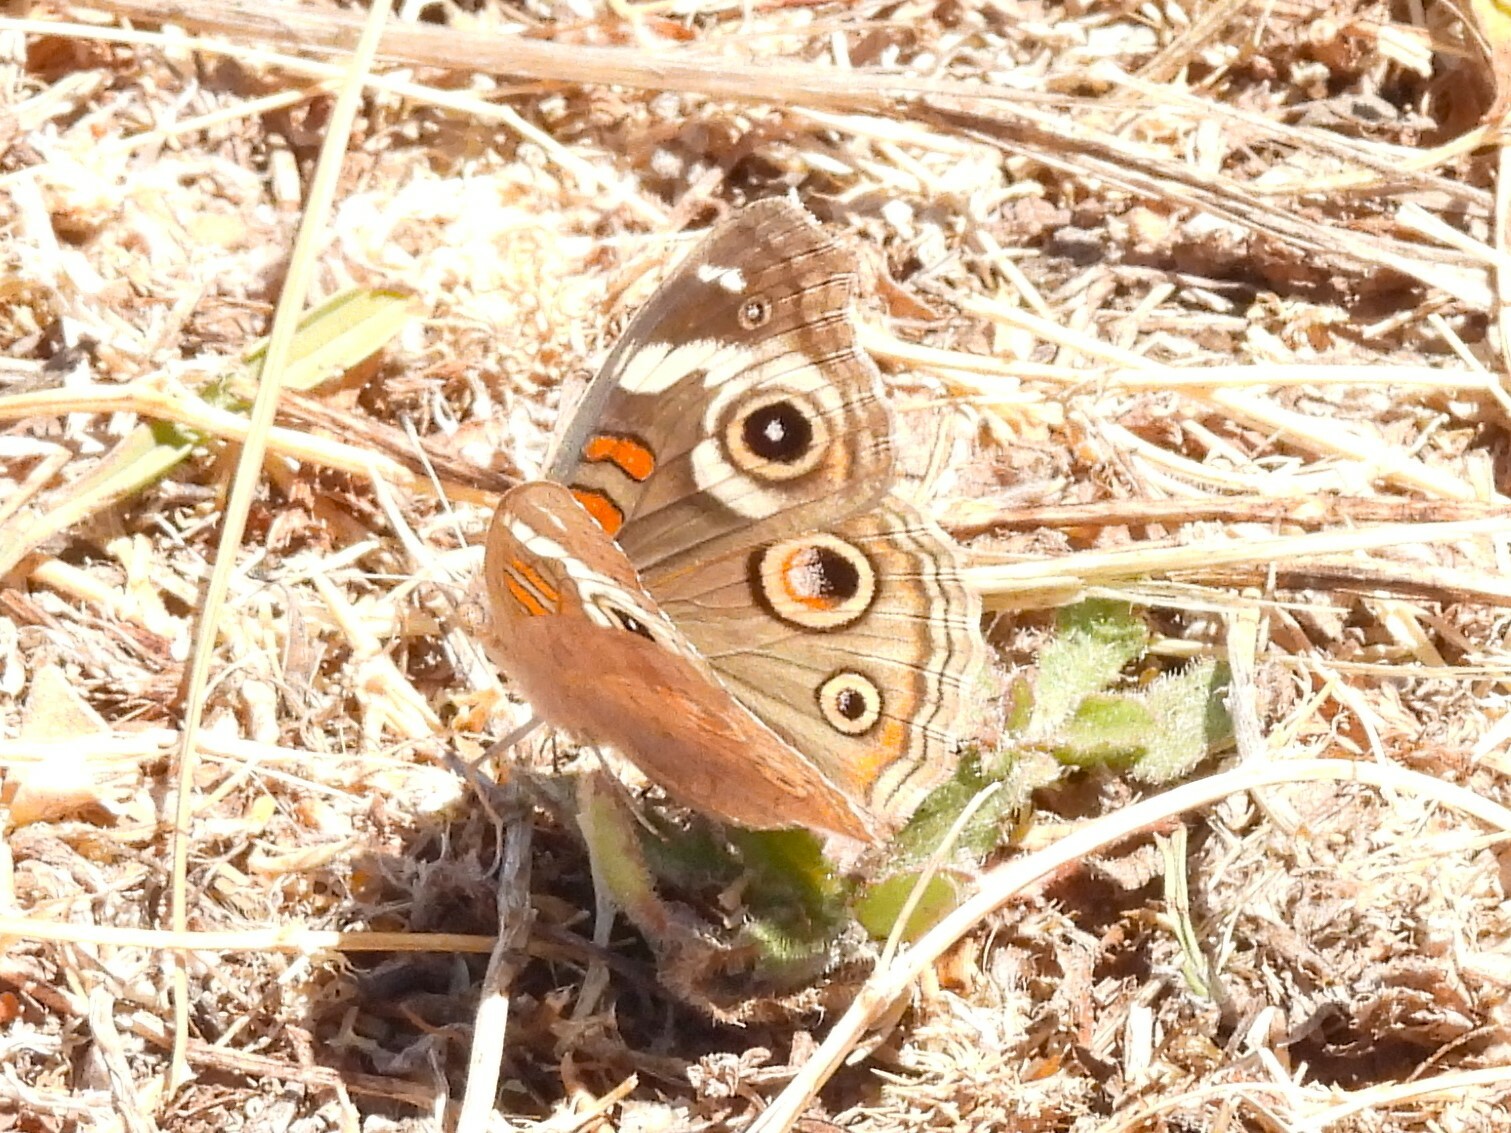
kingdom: Animalia
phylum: Arthropoda
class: Insecta
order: Lepidoptera
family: Nymphalidae
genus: Junonia
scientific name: Junonia grisea
